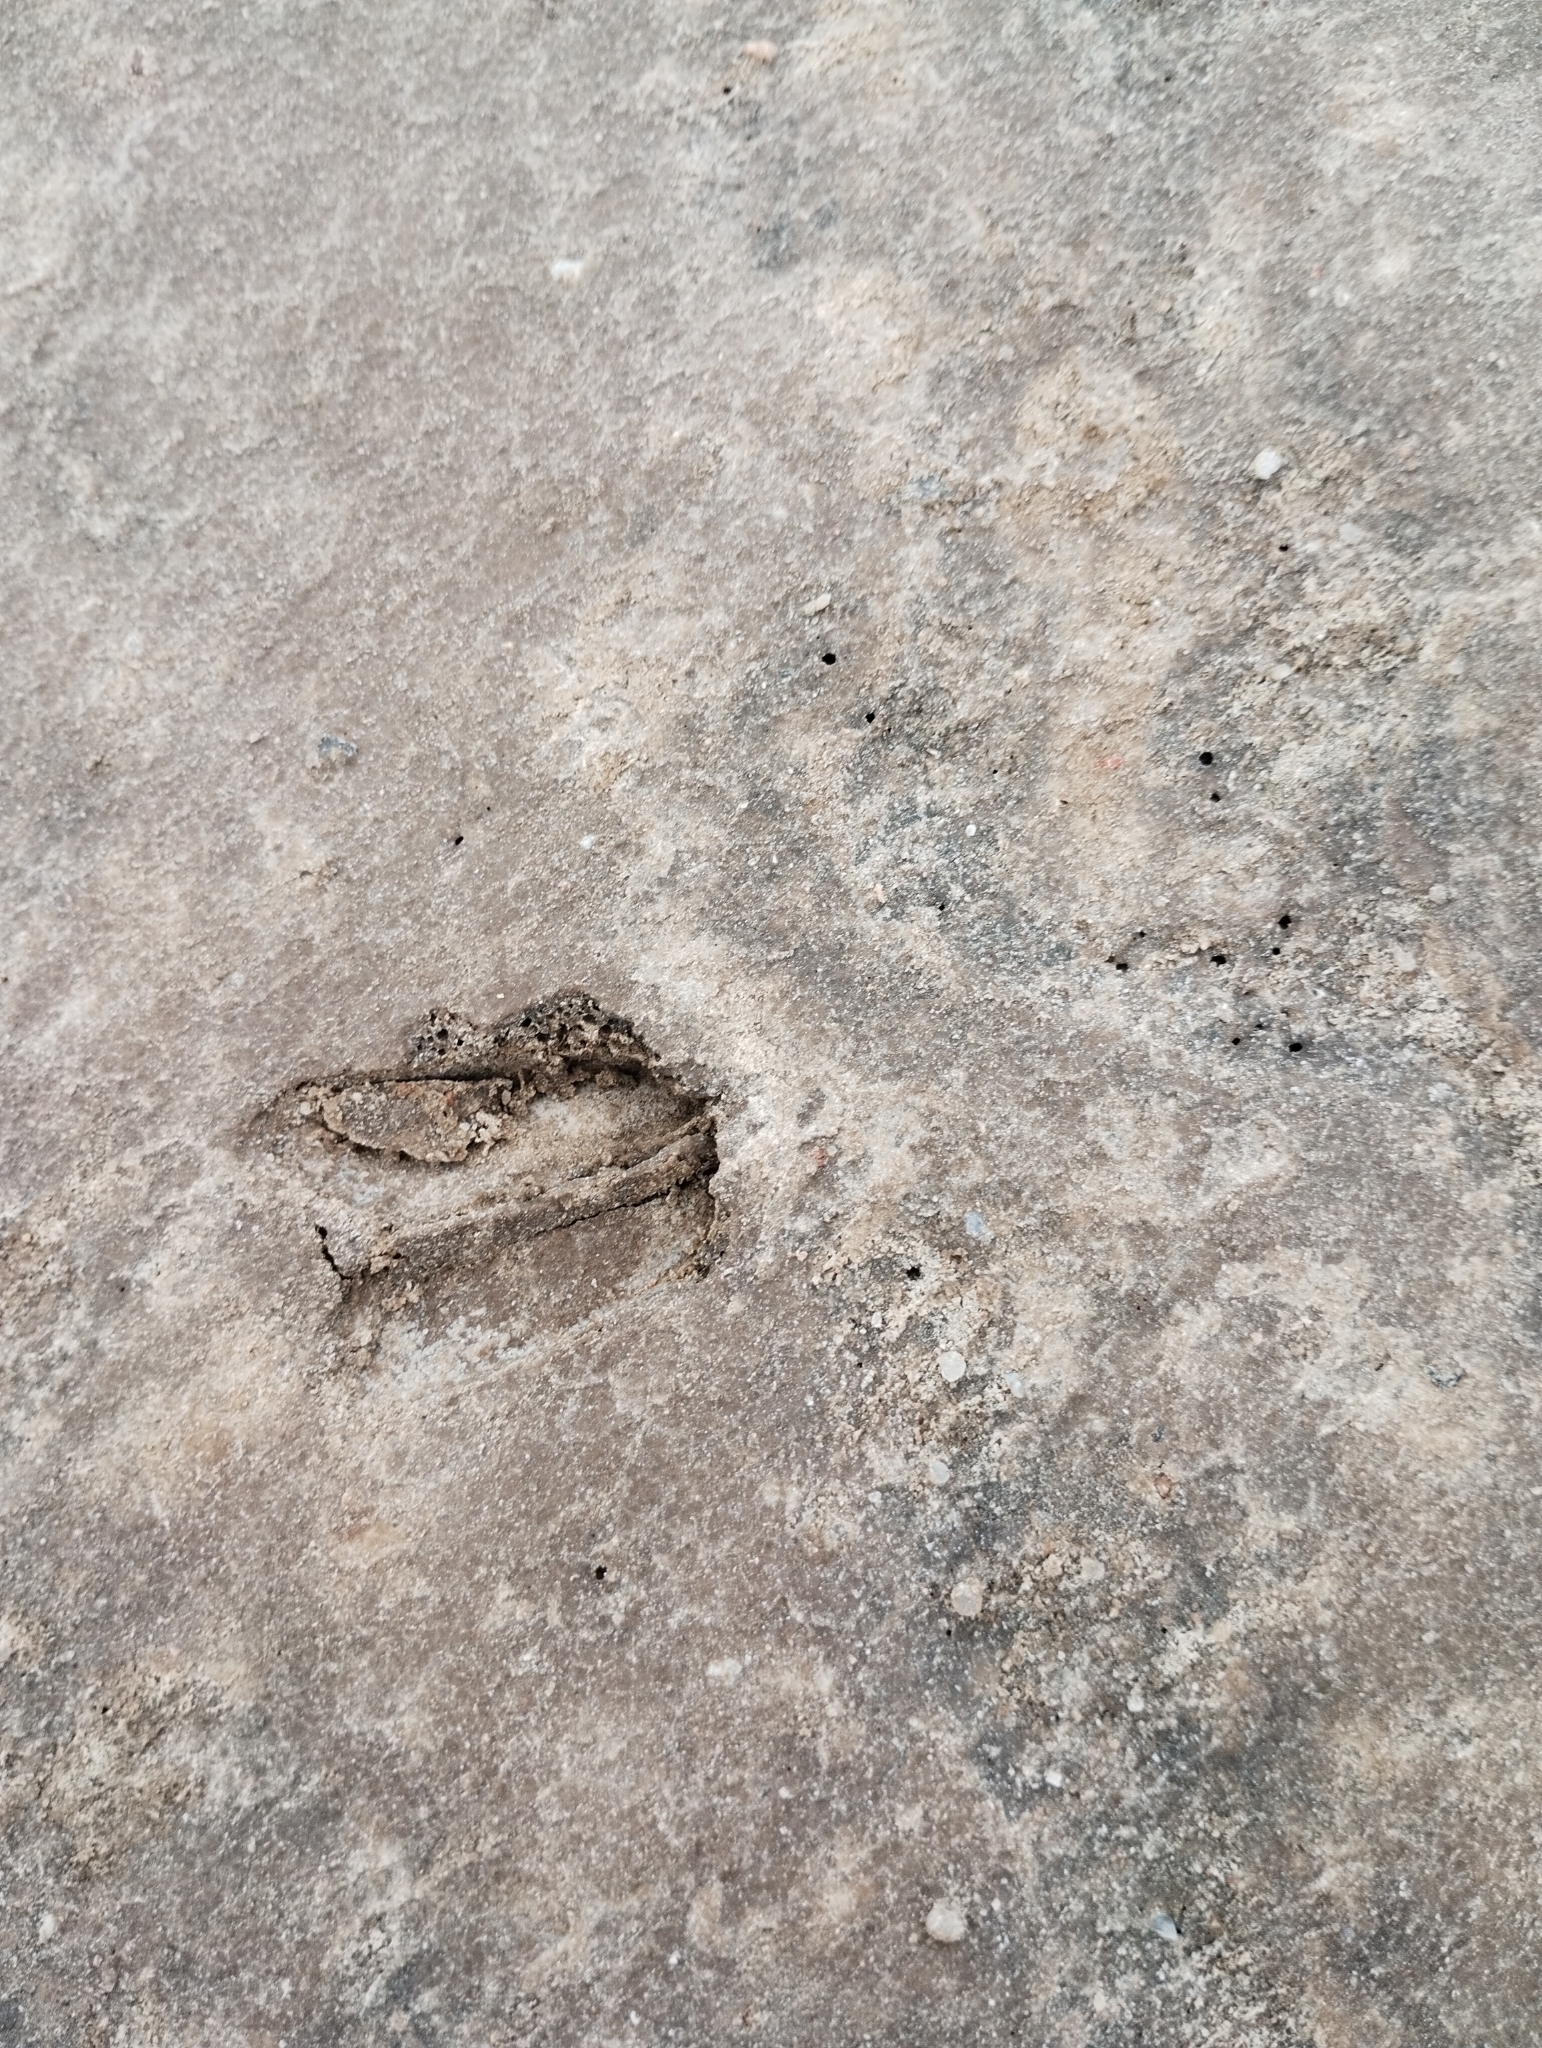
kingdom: Animalia
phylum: Chordata
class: Mammalia
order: Artiodactyla
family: Cervidae
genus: Mazama
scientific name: Mazama gouazoubira
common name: Gray brocket
